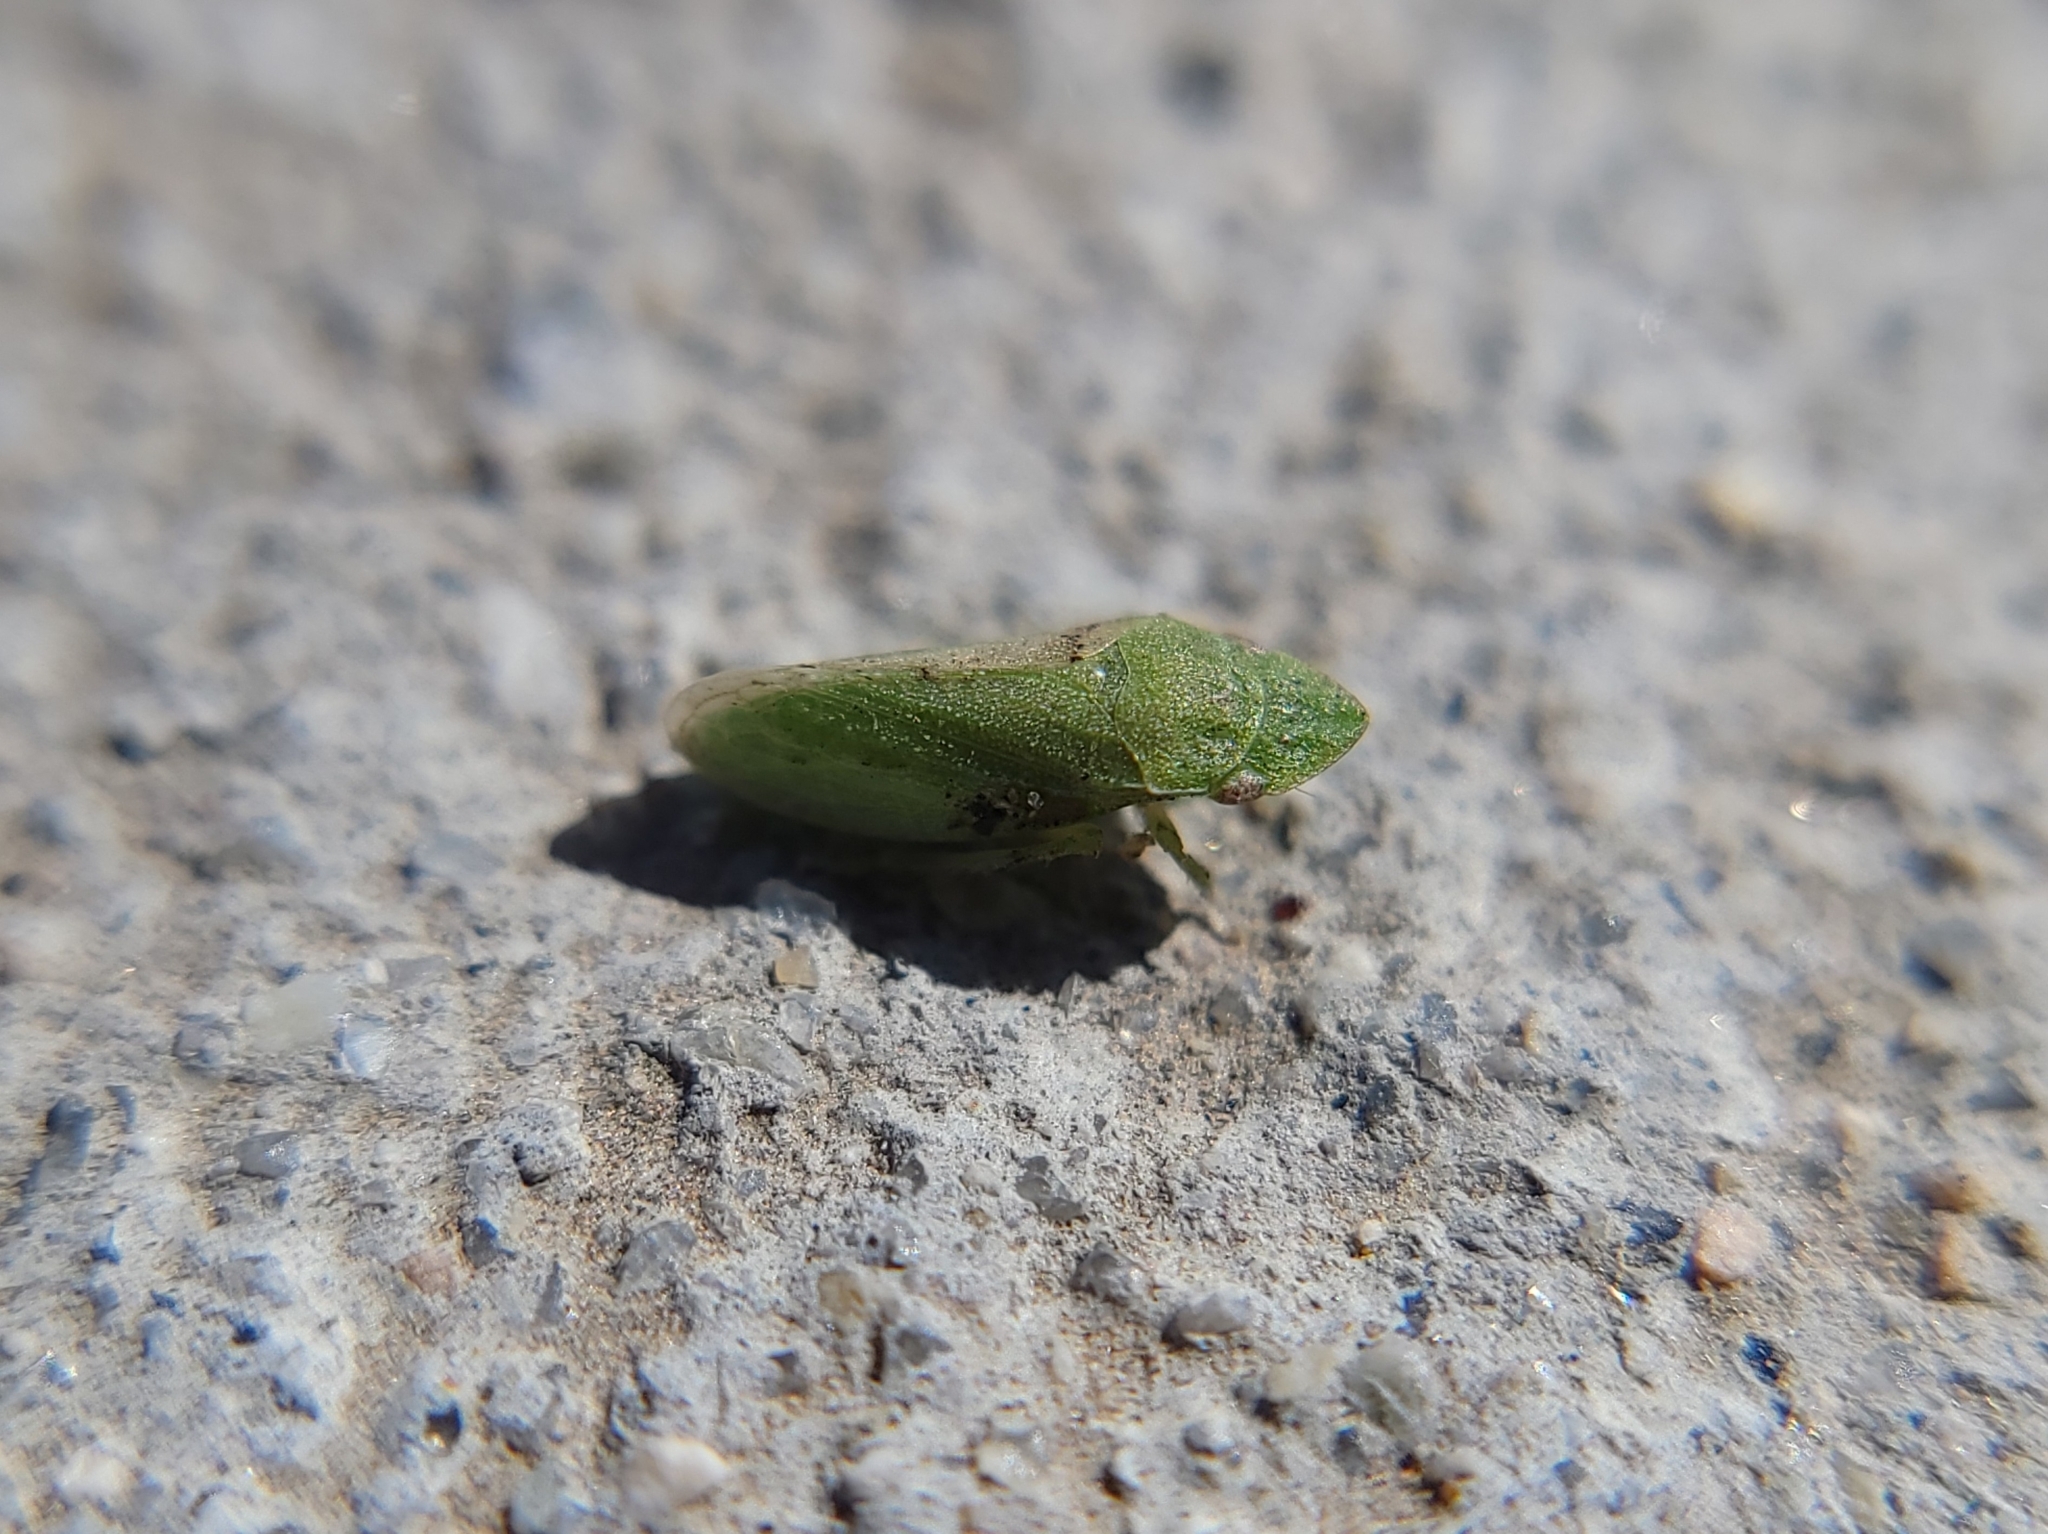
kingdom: Animalia
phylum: Arthropoda
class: Insecta
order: Hemiptera
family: Cicadellidae
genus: Xerophloea
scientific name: Xerophloea peltata
